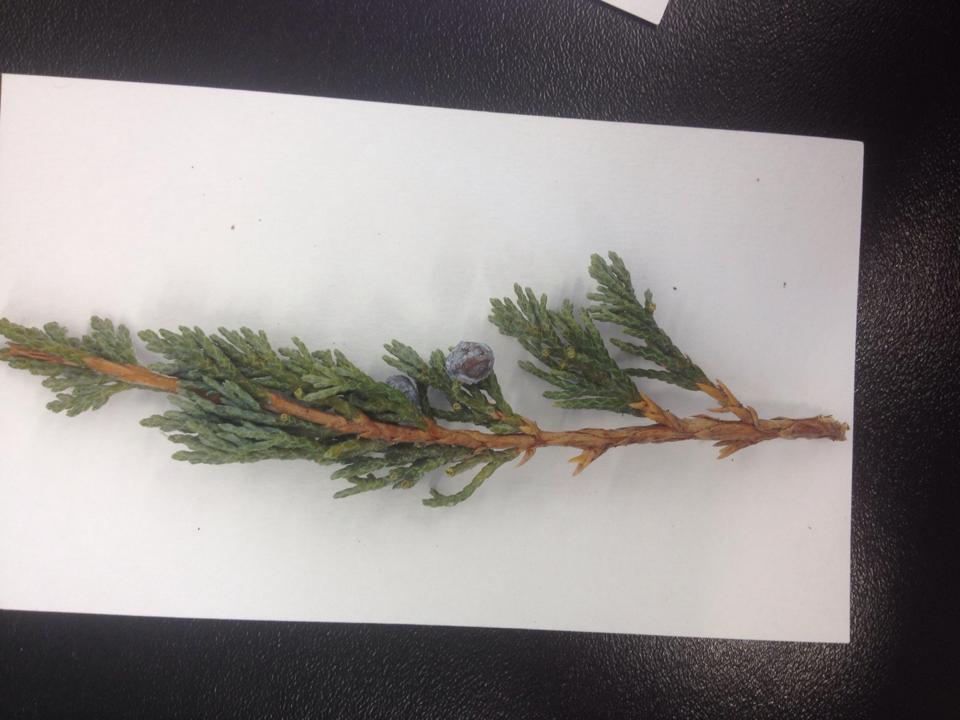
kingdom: Plantae
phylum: Tracheophyta
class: Pinopsida
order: Pinales
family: Cupressaceae
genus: Juniperus
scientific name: Juniperus horizontalis
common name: Creeping juniper
